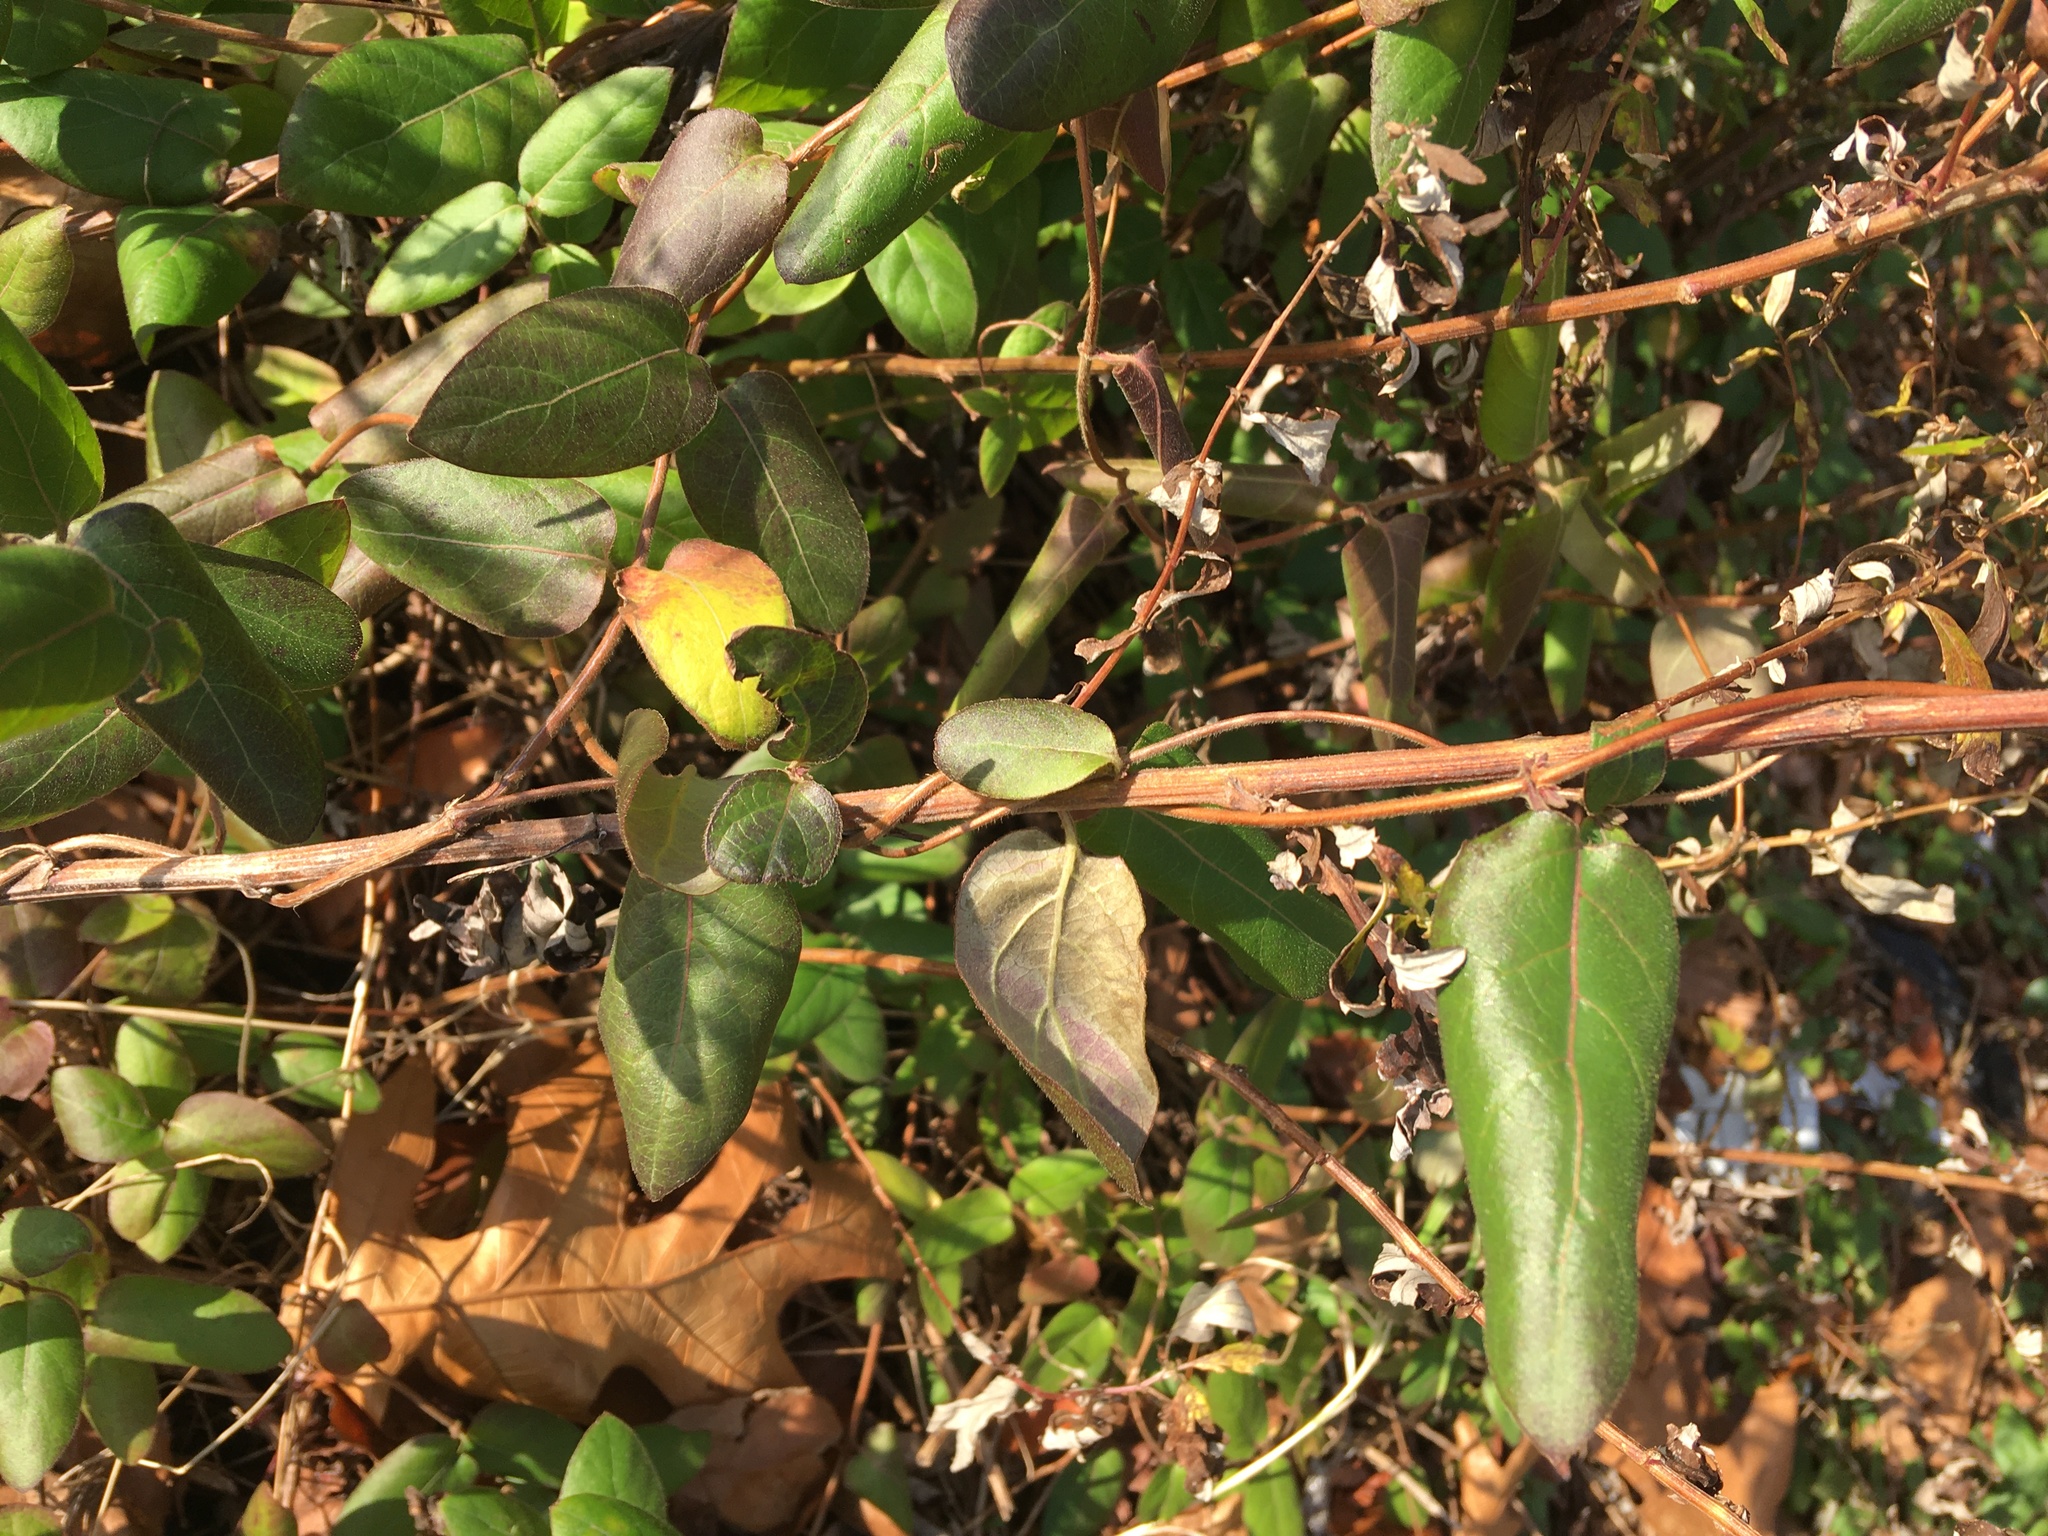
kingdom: Plantae
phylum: Tracheophyta
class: Magnoliopsida
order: Dipsacales
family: Caprifoliaceae
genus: Lonicera
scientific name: Lonicera japonica
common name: Japanese honeysuckle
